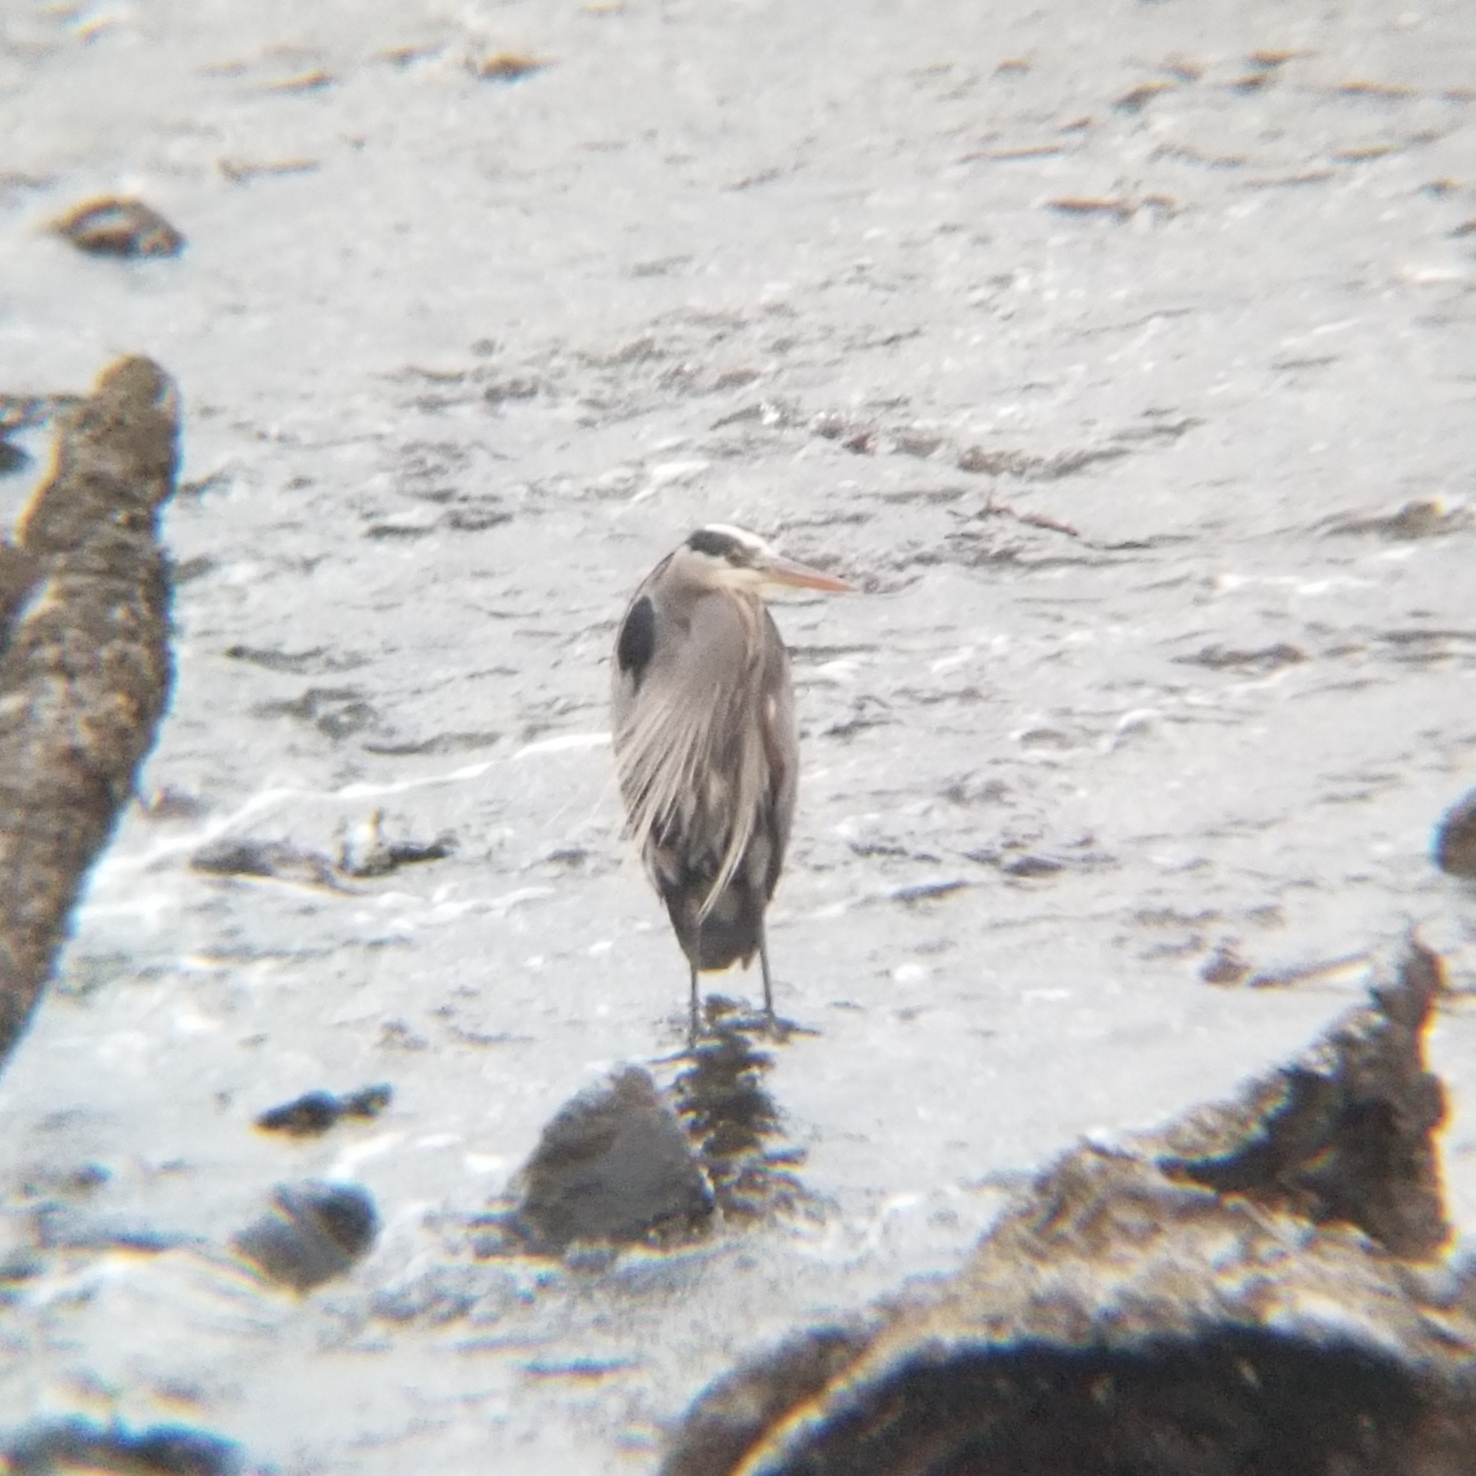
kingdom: Animalia
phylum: Chordata
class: Aves
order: Pelecaniformes
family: Ardeidae
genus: Ardea
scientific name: Ardea herodias
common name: Great blue heron
